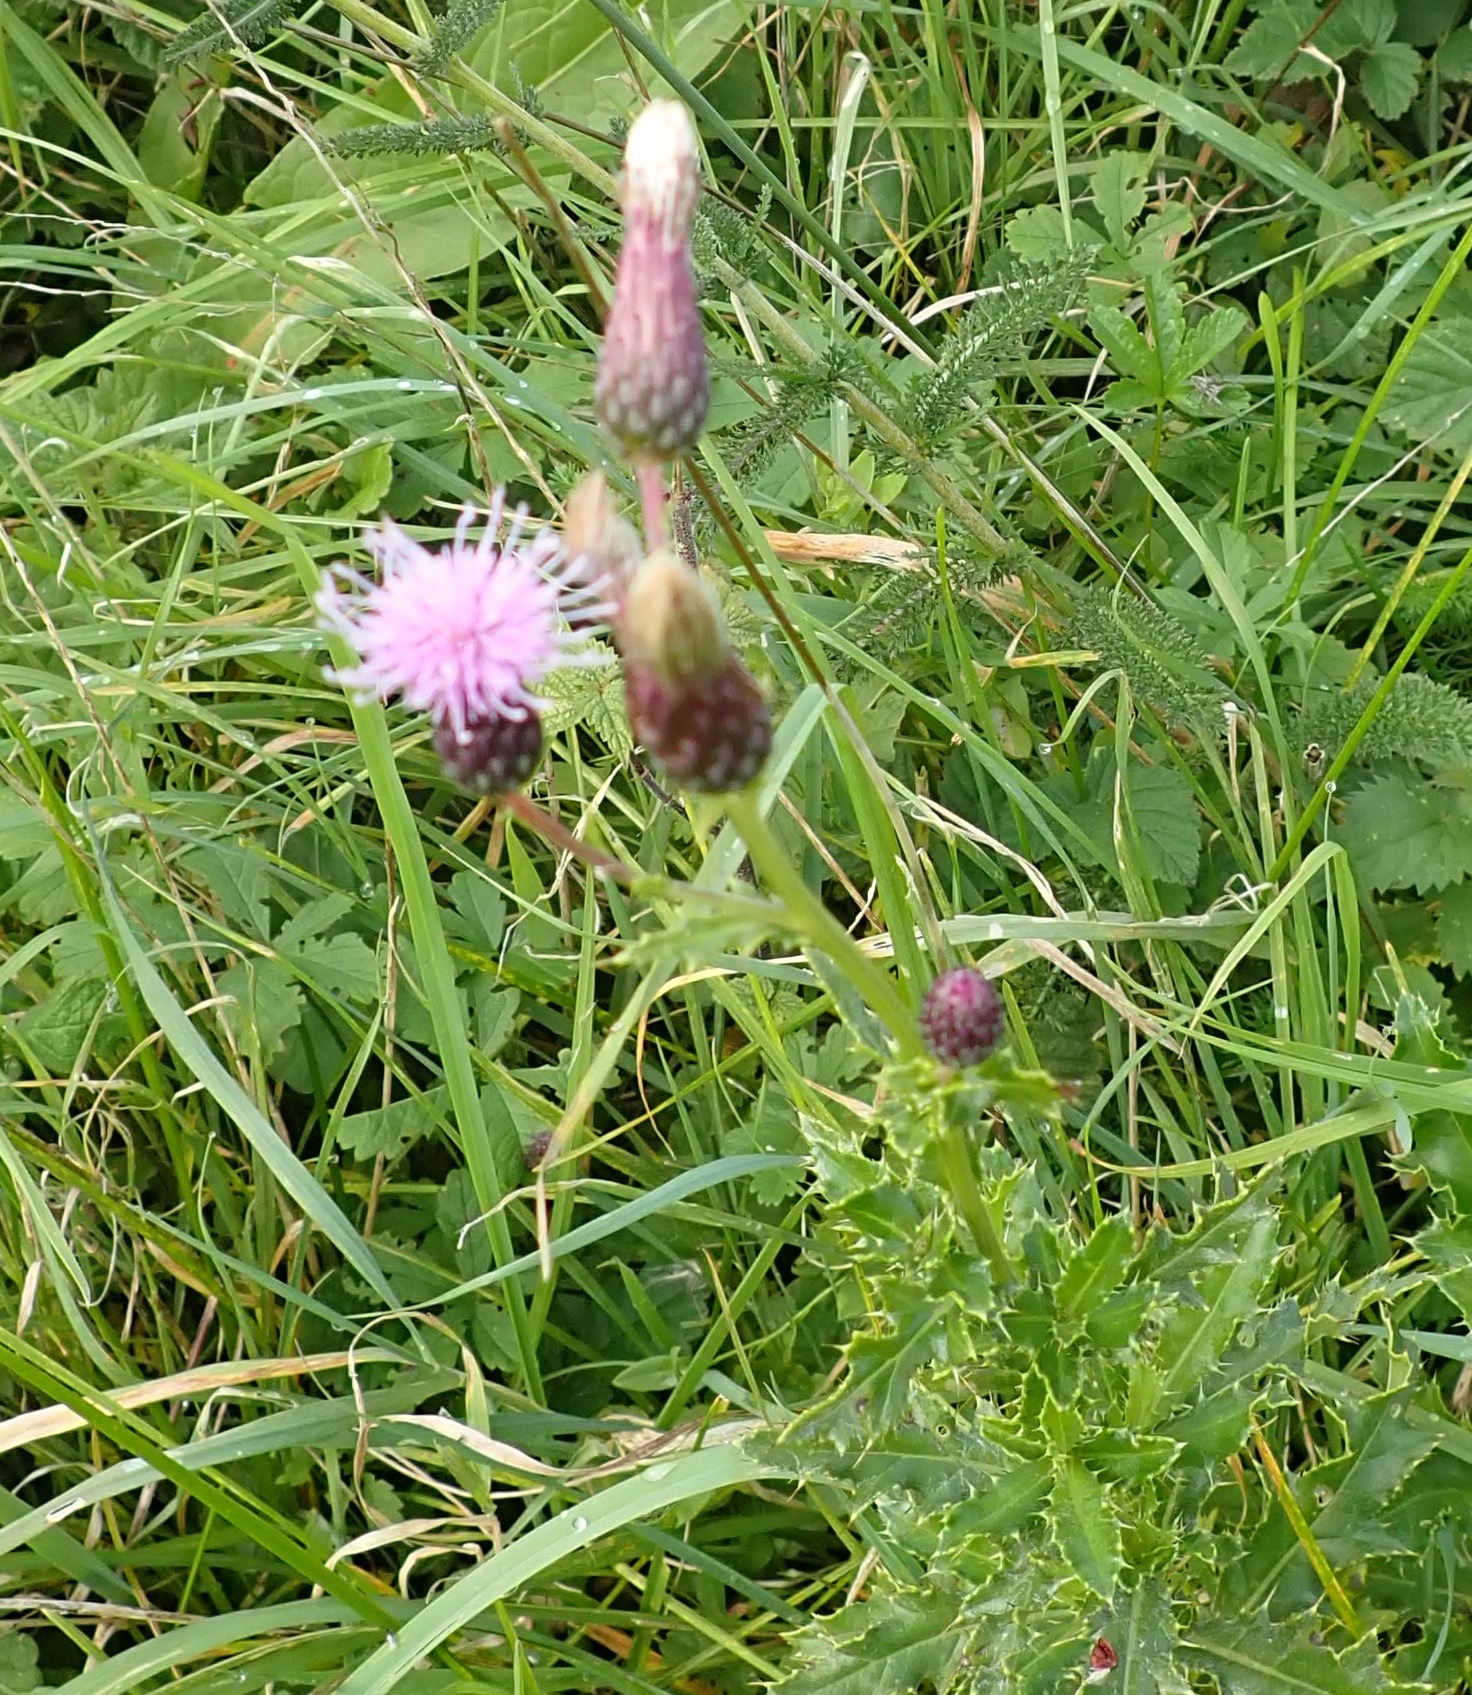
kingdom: Plantae
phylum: Tracheophyta
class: Magnoliopsida
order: Asterales
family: Asteraceae
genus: Cirsium
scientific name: Cirsium arvense
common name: Creeping thistle
